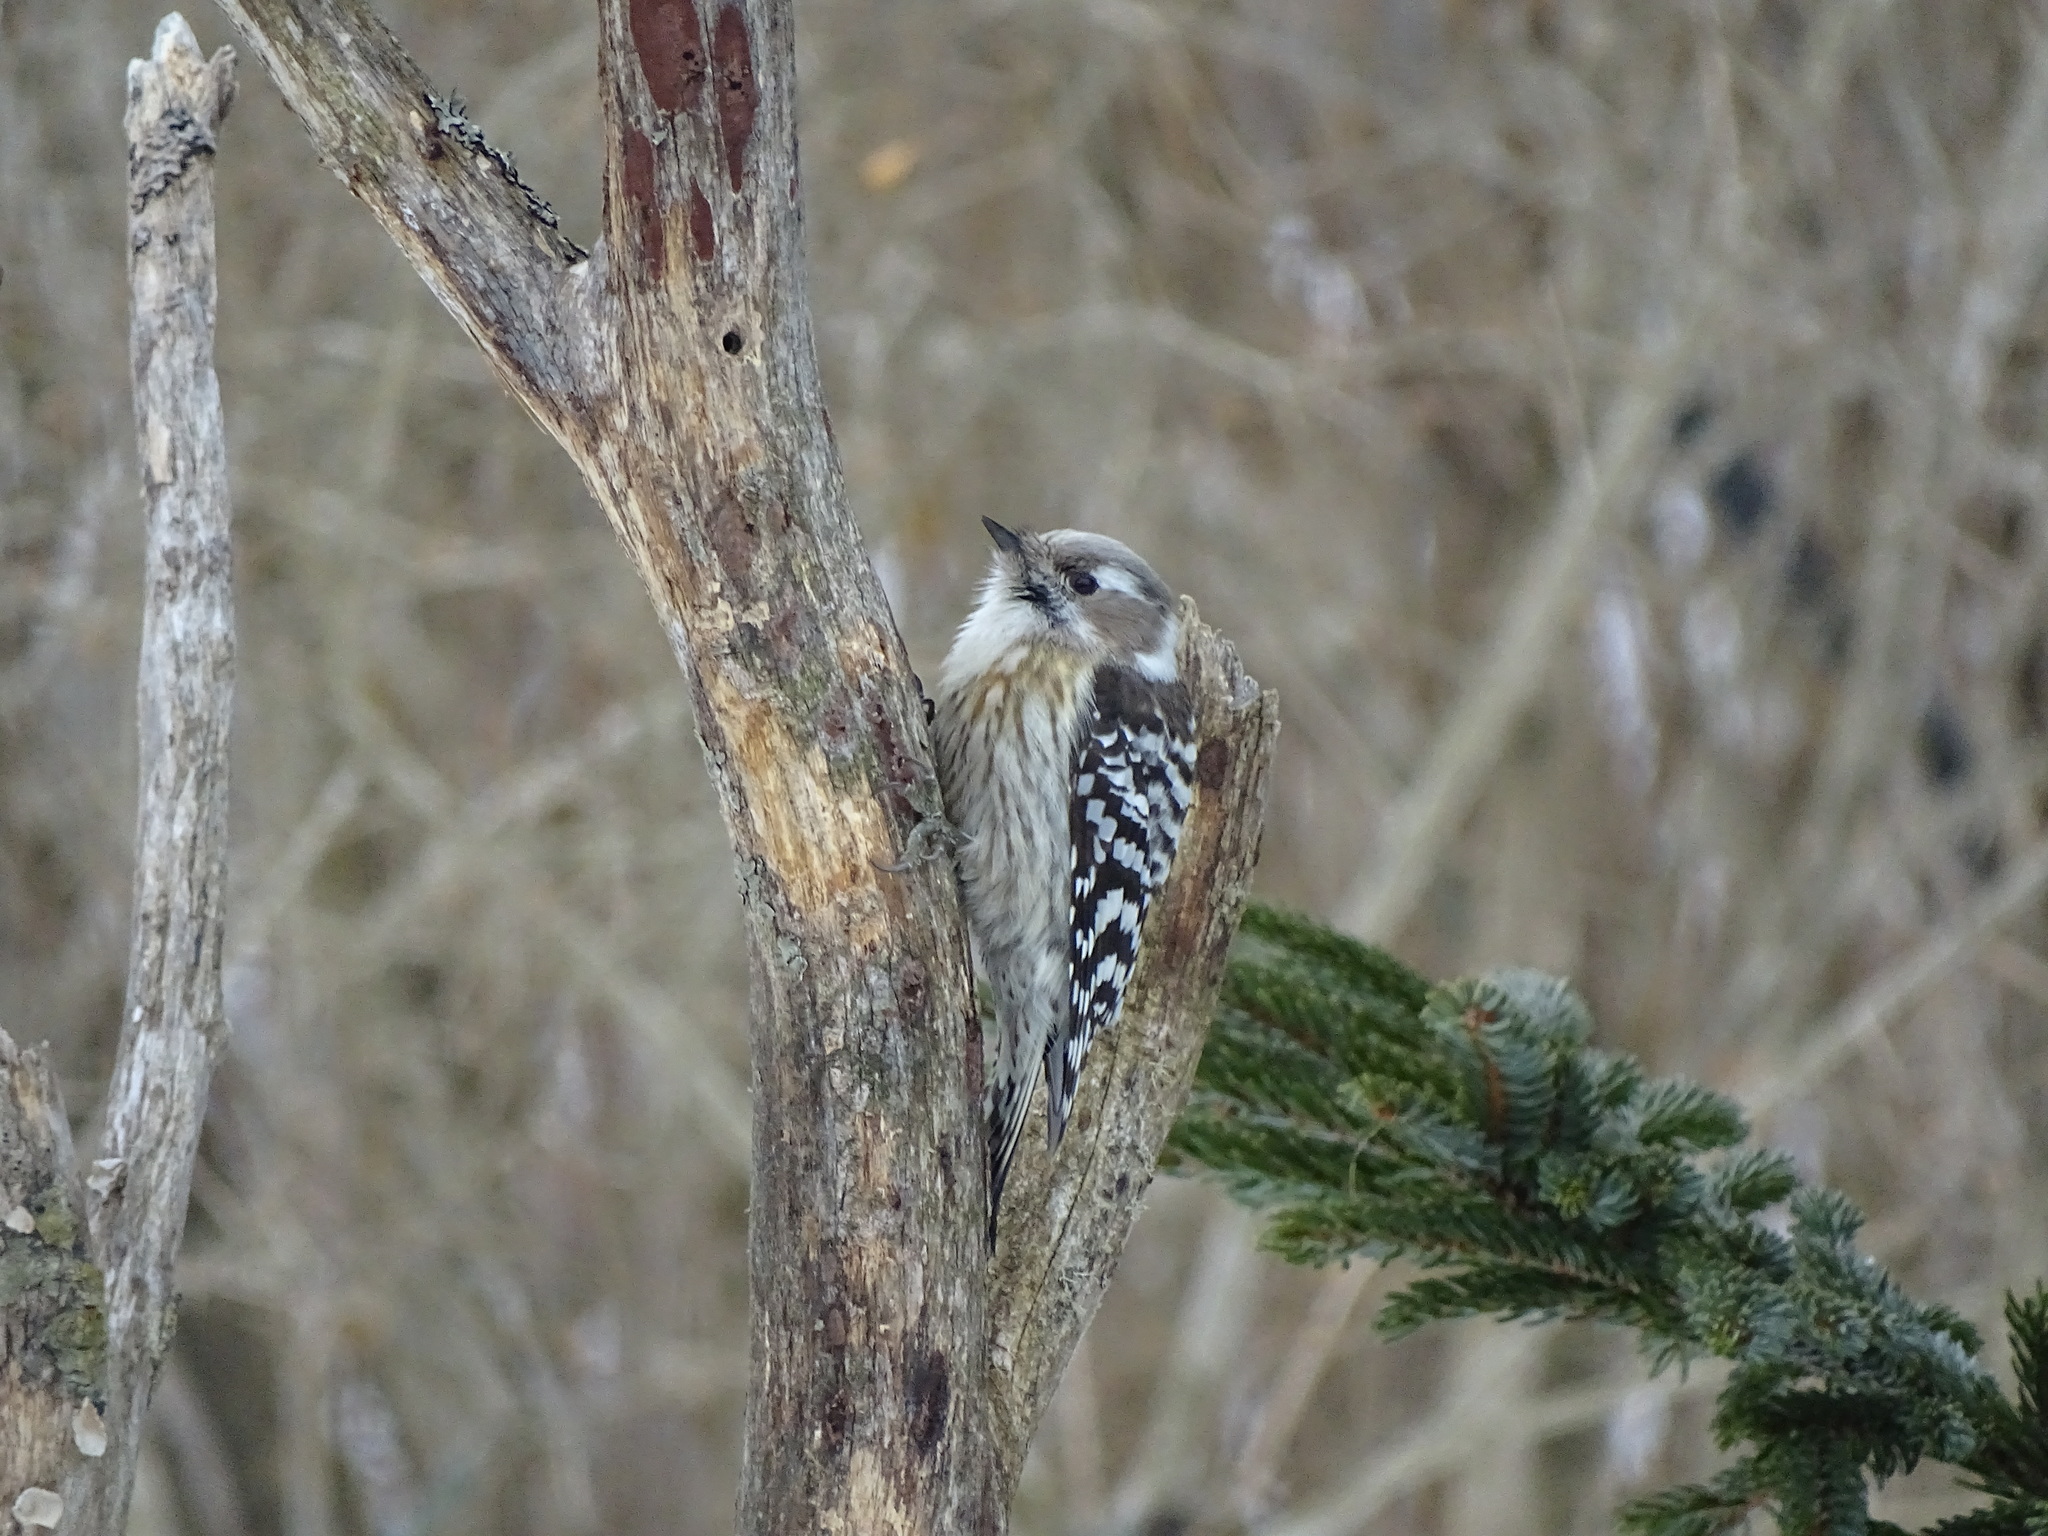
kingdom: Animalia
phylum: Chordata
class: Aves
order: Piciformes
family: Picidae
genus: Yungipicus
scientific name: Yungipicus kizuki
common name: Japanese pygmy woodpecker
